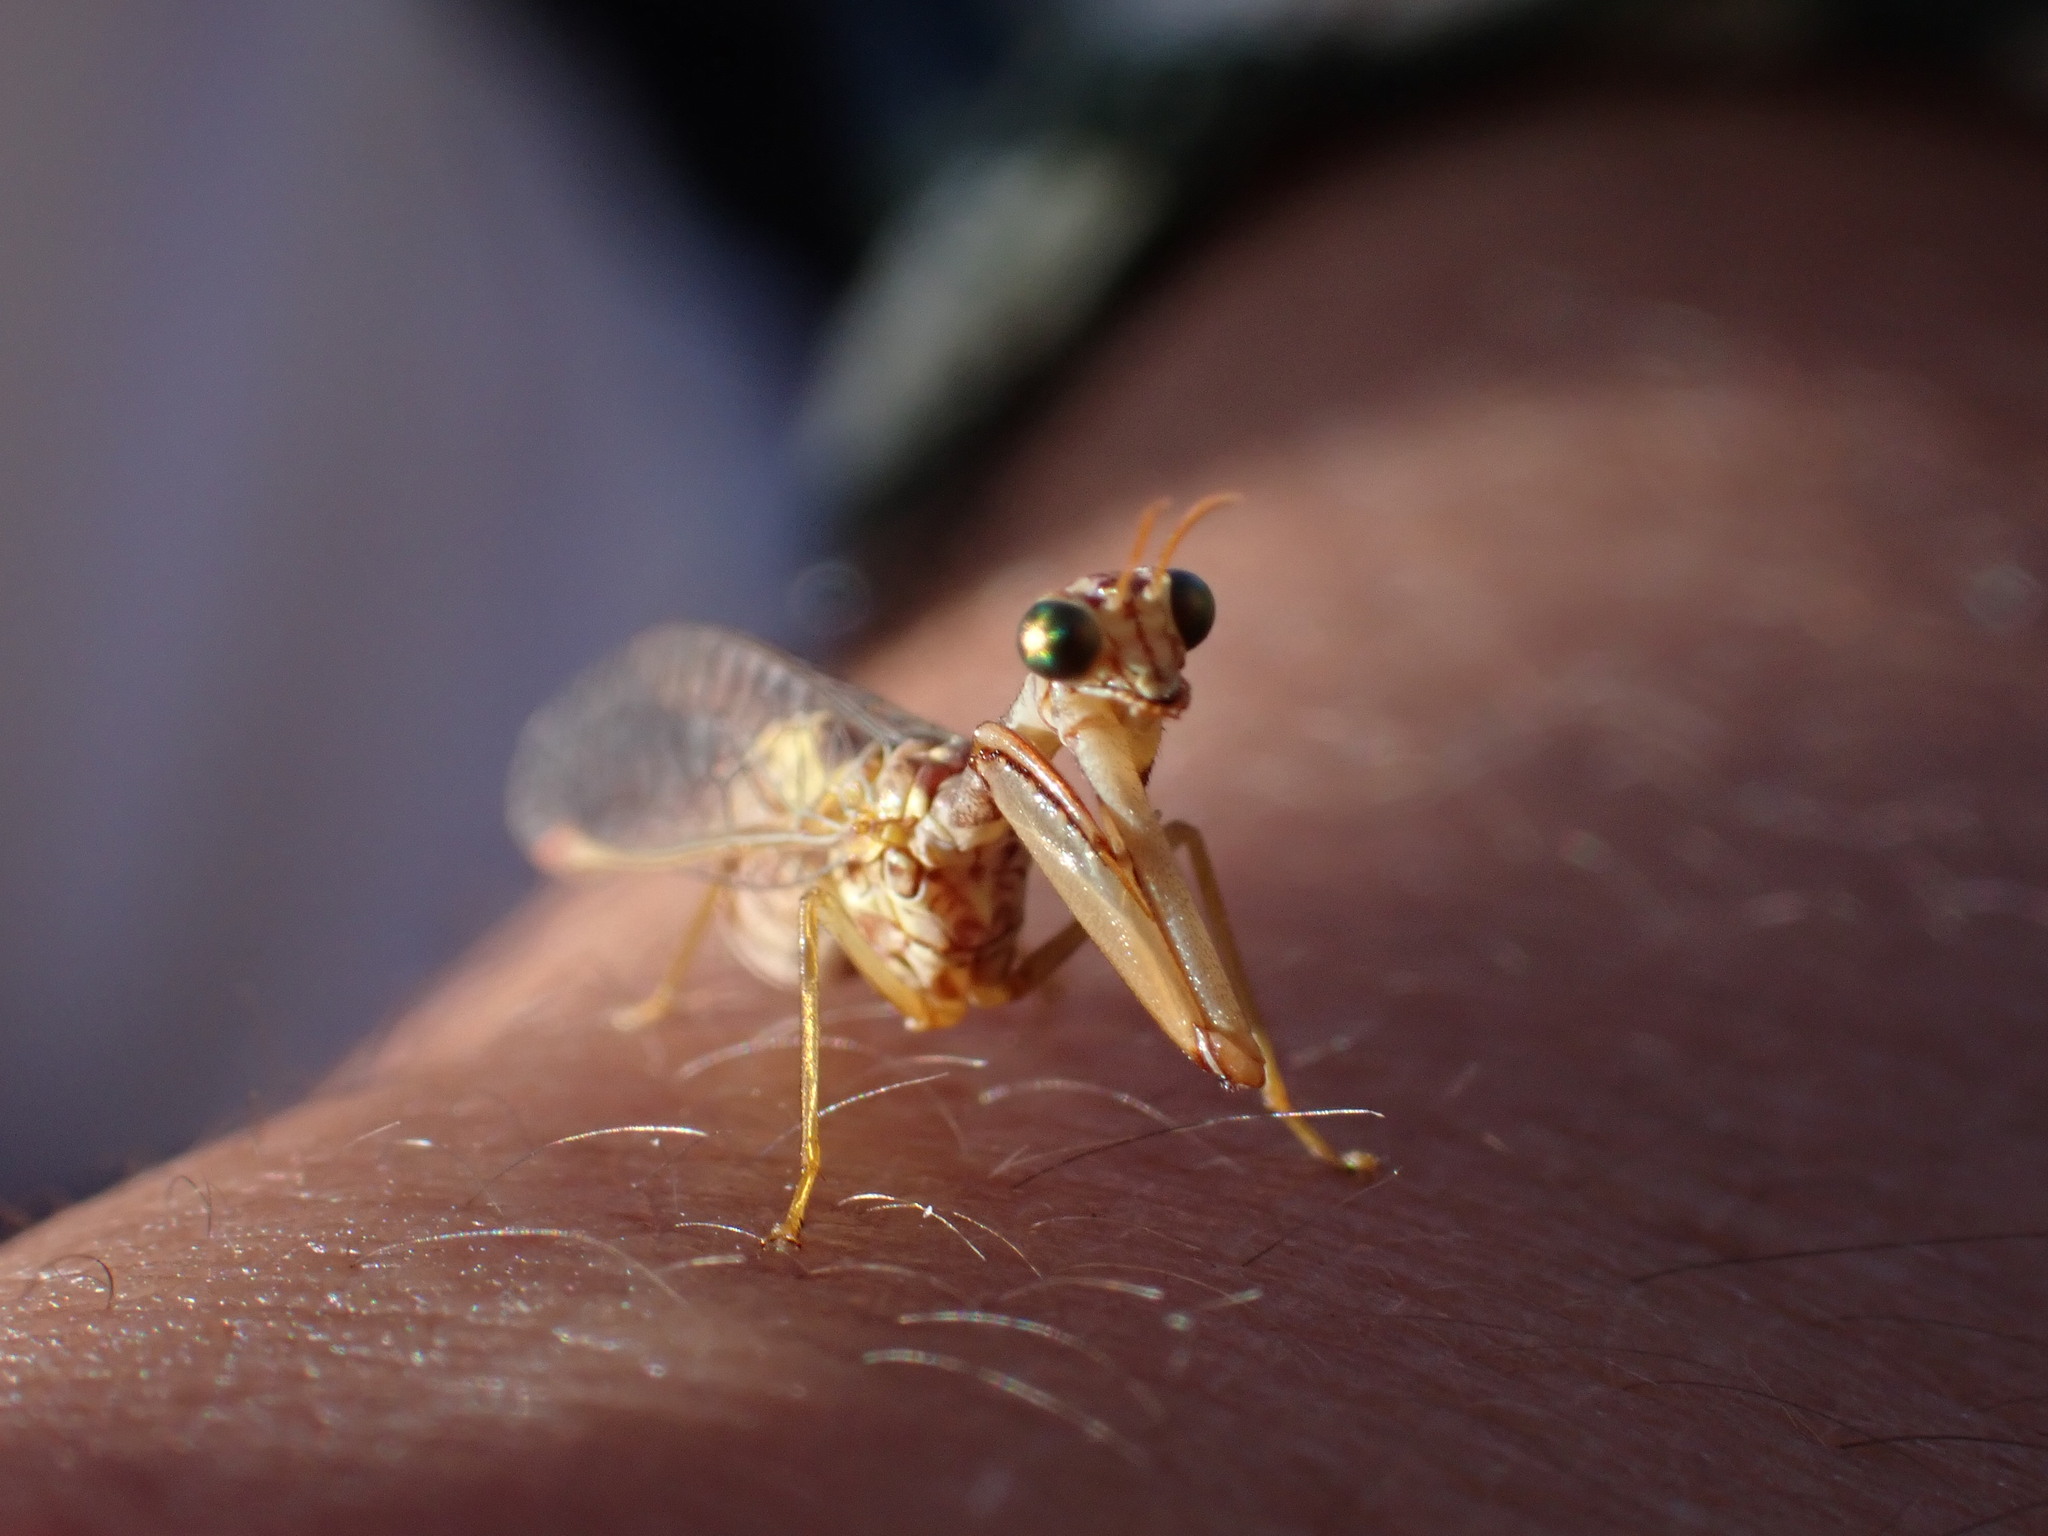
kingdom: Animalia
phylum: Arthropoda
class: Insecta
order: Neuroptera
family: Mantispidae
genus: Mantispa
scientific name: Mantispa styriaca
